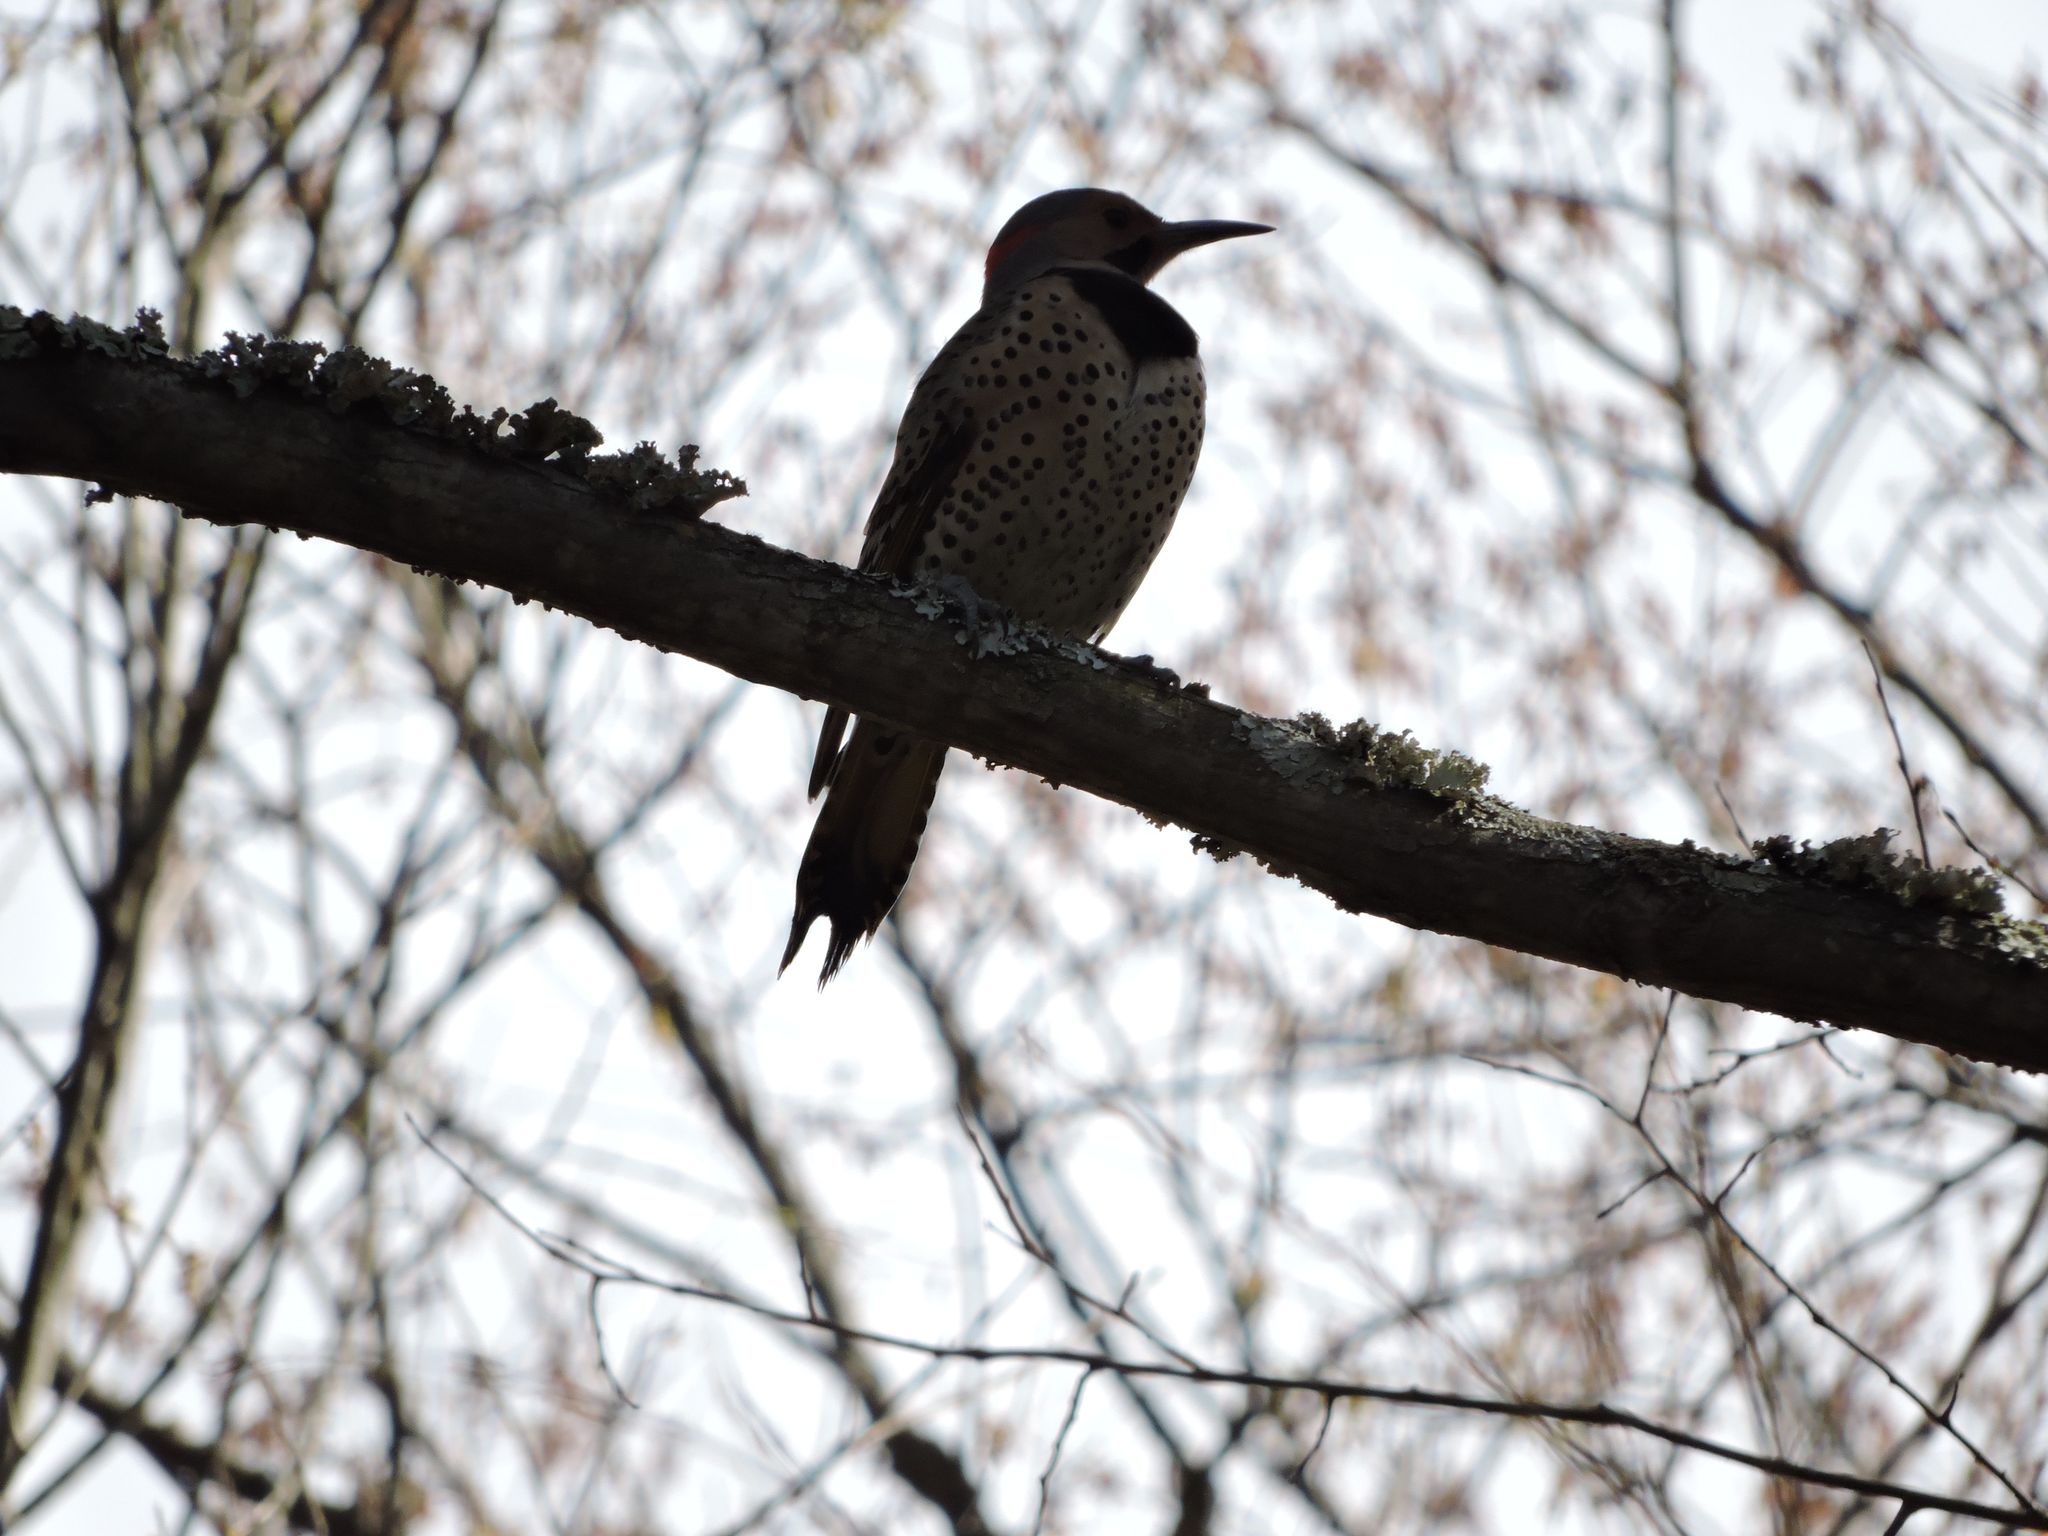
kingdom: Animalia
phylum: Chordata
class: Aves
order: Piciformes
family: Picidae
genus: Colaptes
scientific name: Colaptes auratus
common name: Northern flicker
